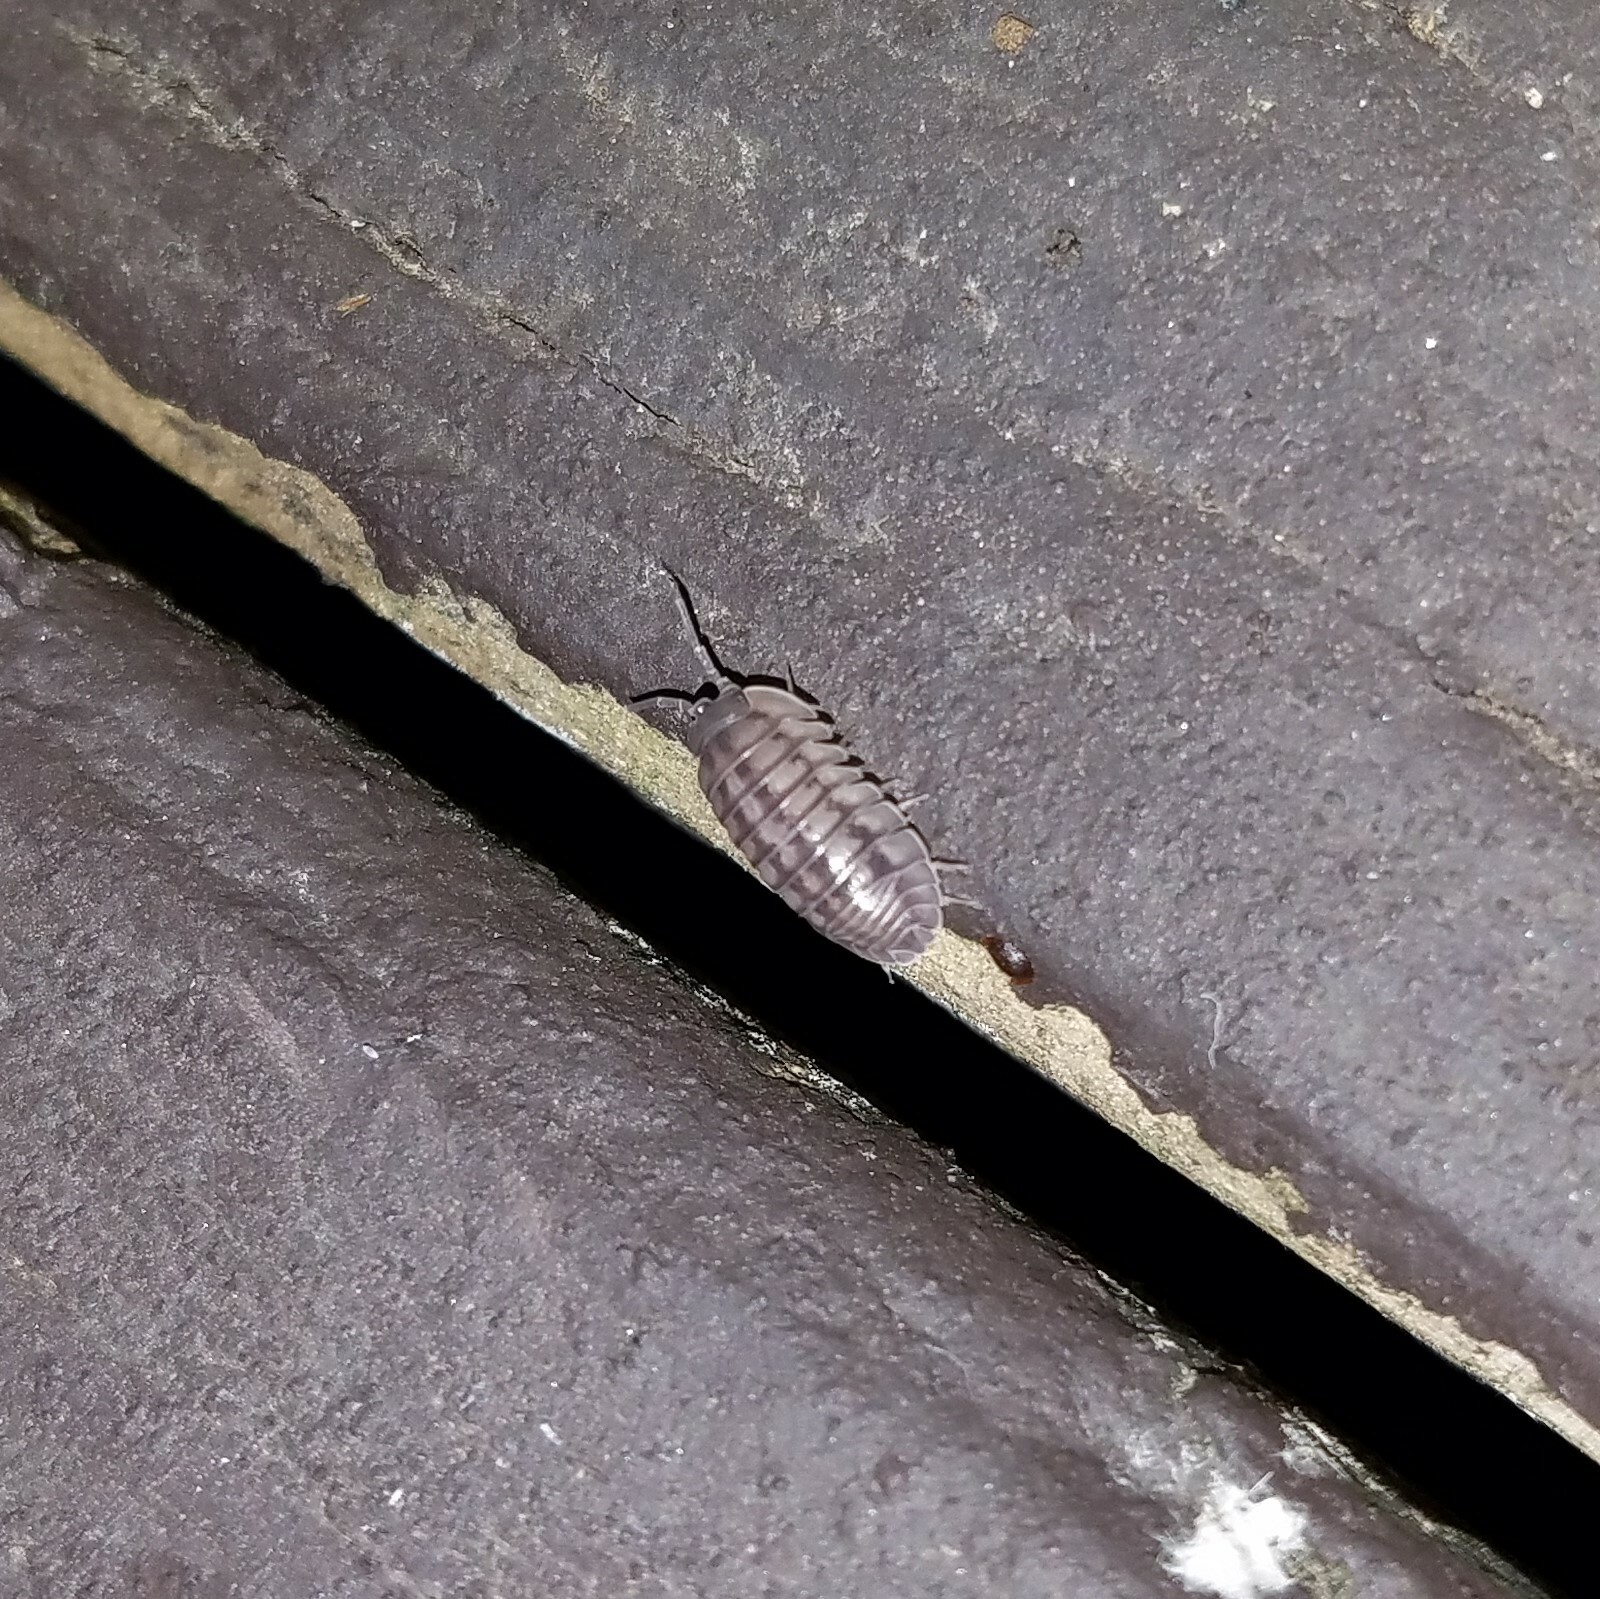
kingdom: Animalia
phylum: Arthropoda
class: Malacostraca
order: Isopoda
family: Armadillidiidae
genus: Armadillidium
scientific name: Armadillidium nasatum
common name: Isopod
